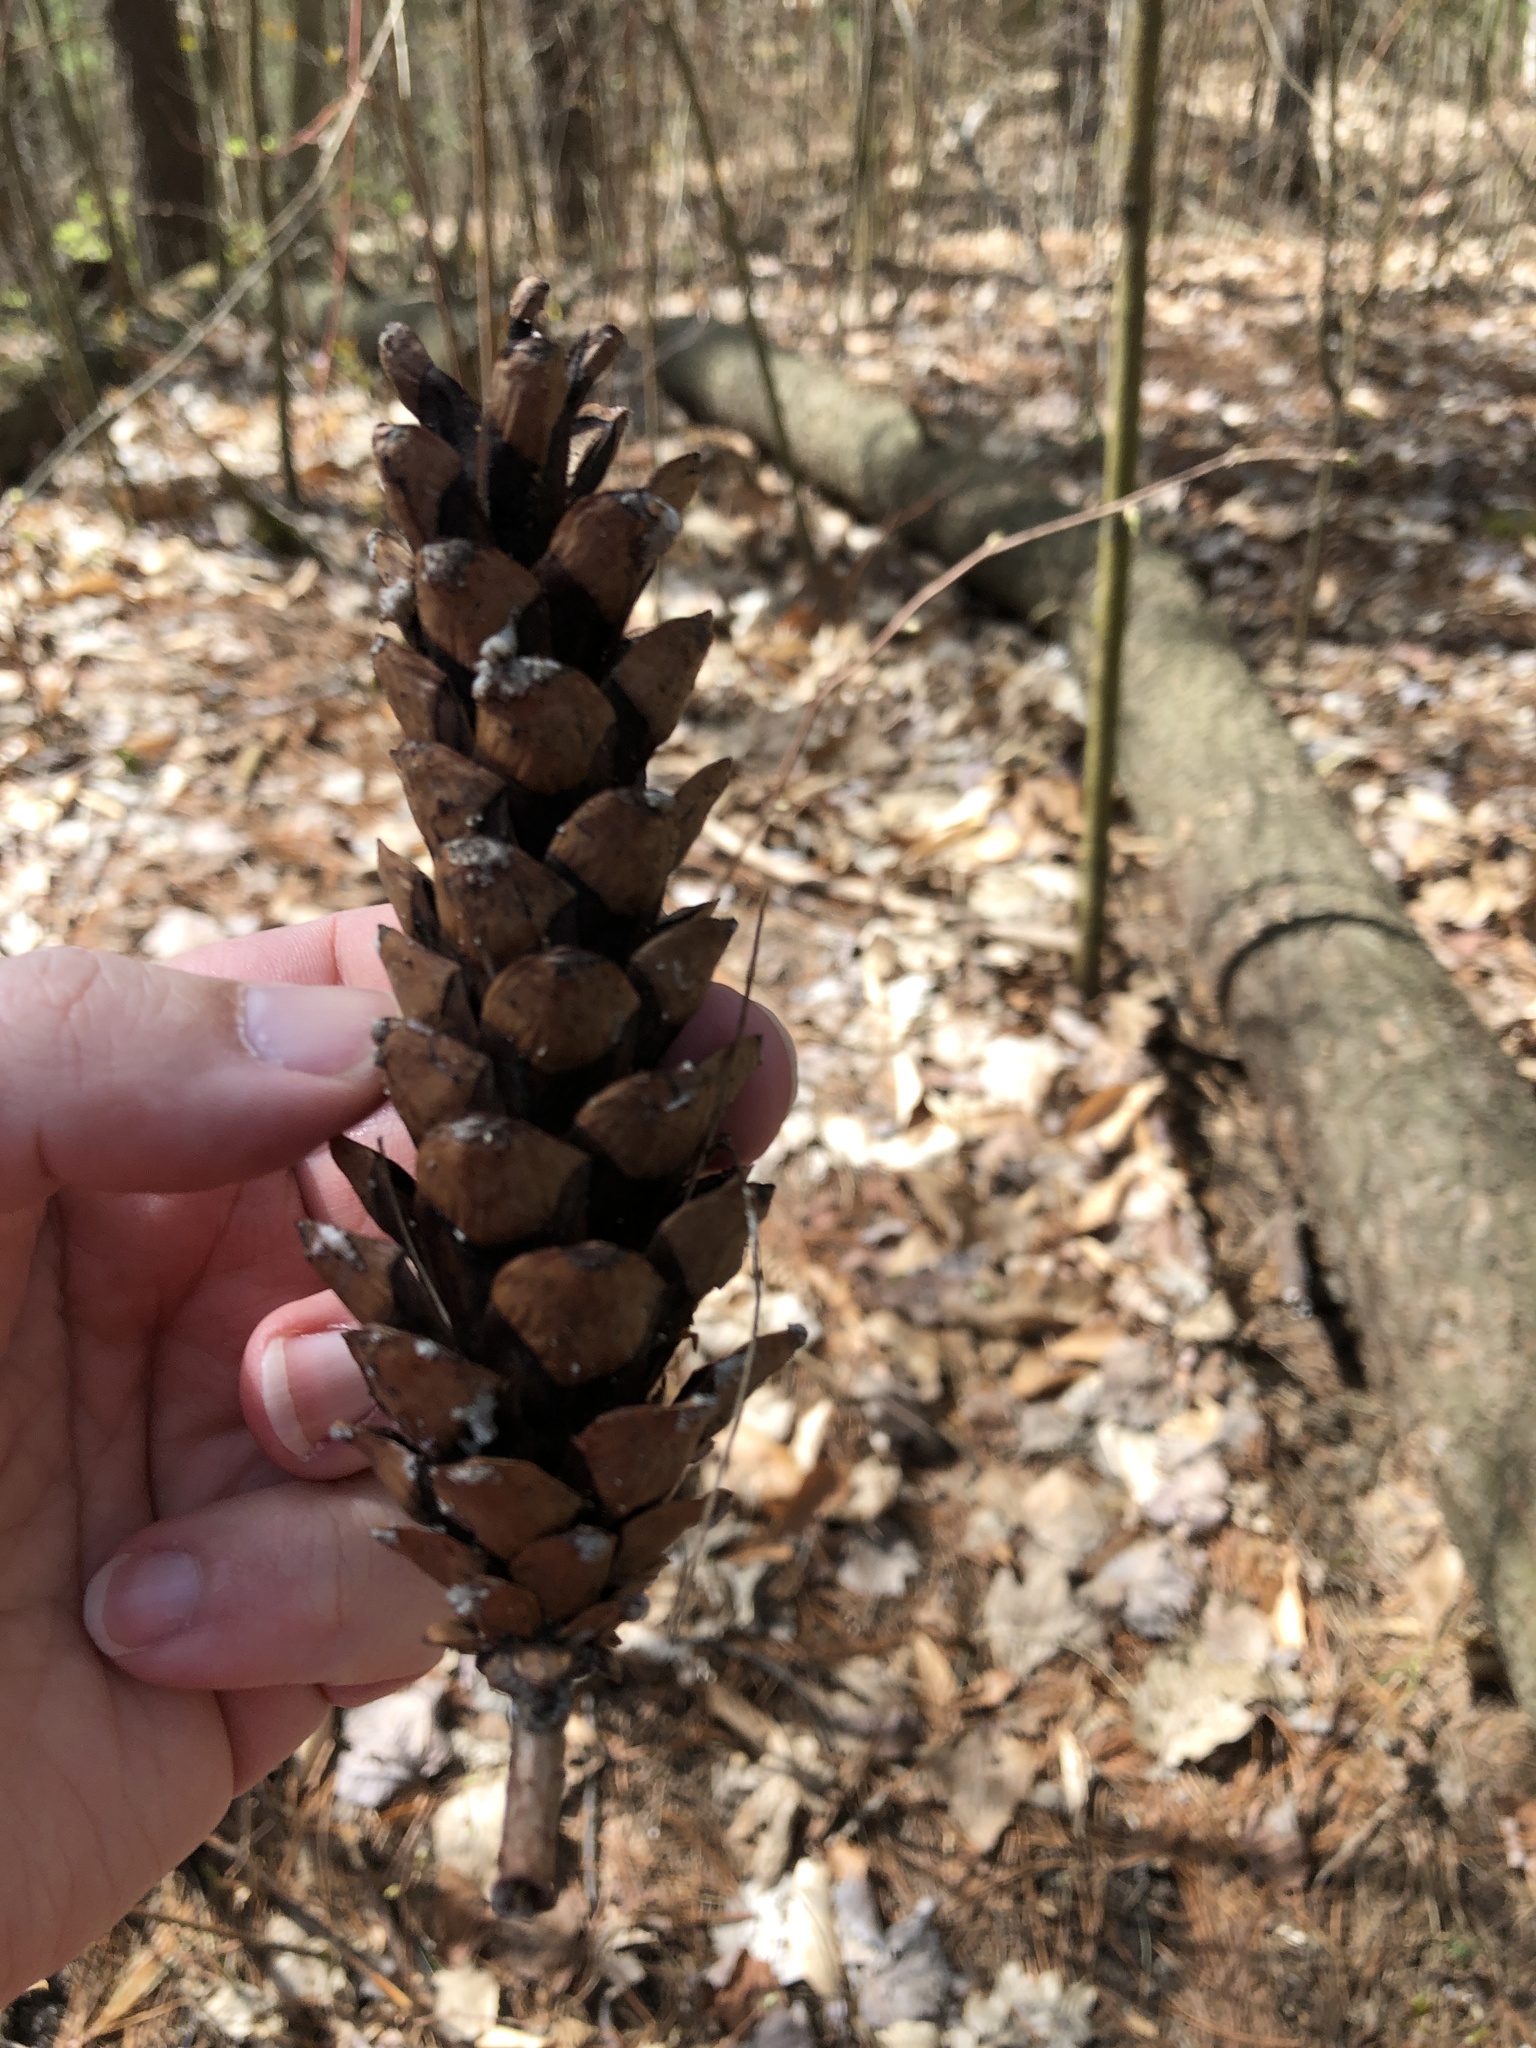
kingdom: Plantae
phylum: Tracheophyta
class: Pinopsida
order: Pinales
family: Pinaceae
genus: Pinus
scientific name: Pinus strobus
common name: Weymouth pine
